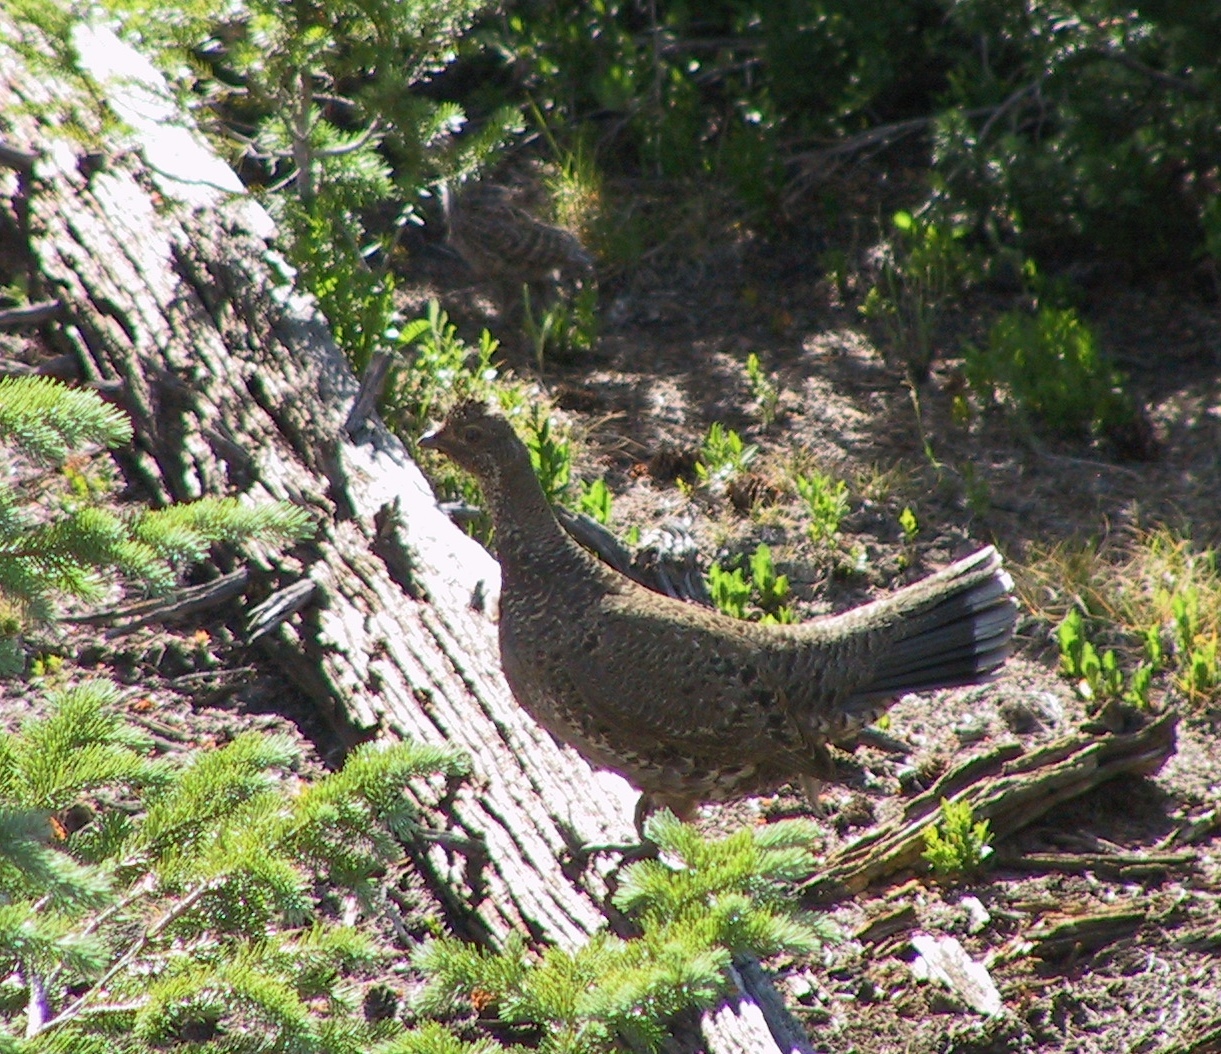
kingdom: Animalia
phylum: Chordata
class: Aves
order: Galliformes
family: Phasianidae
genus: Dendragapus
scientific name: Dendragapus obscurus
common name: Dusky grouse
